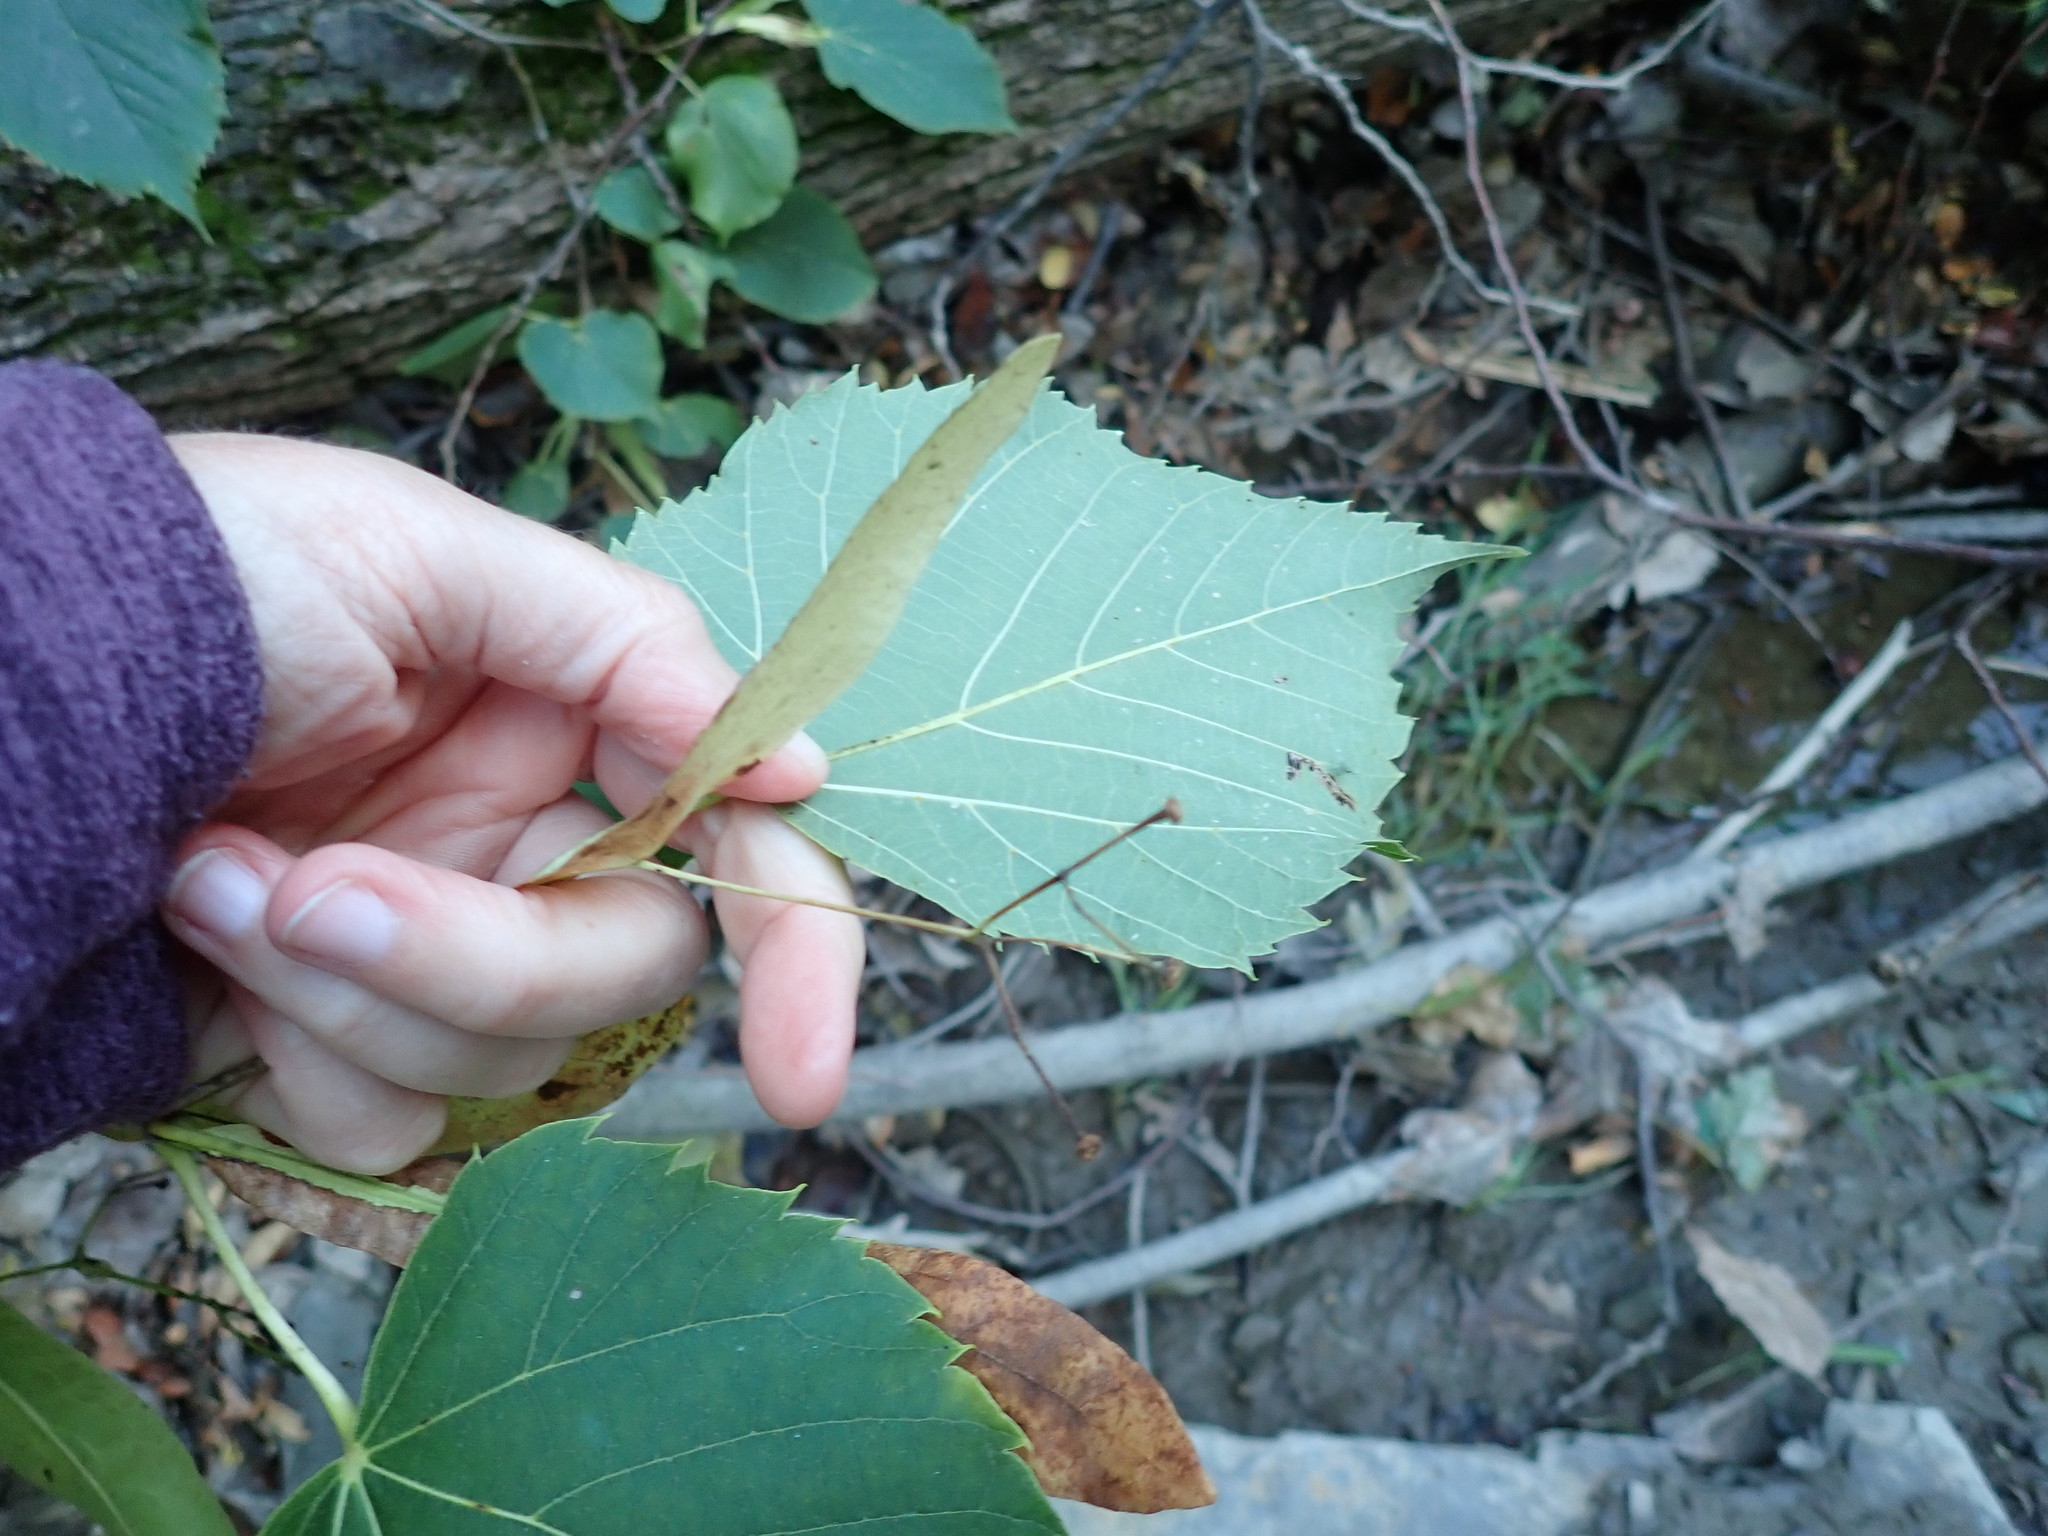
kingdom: Plantae
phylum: Tracheophyta
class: Magnoliopsida
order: Malvales
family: Malvaceae
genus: Tilia
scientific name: Tilia americana
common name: Basswood
